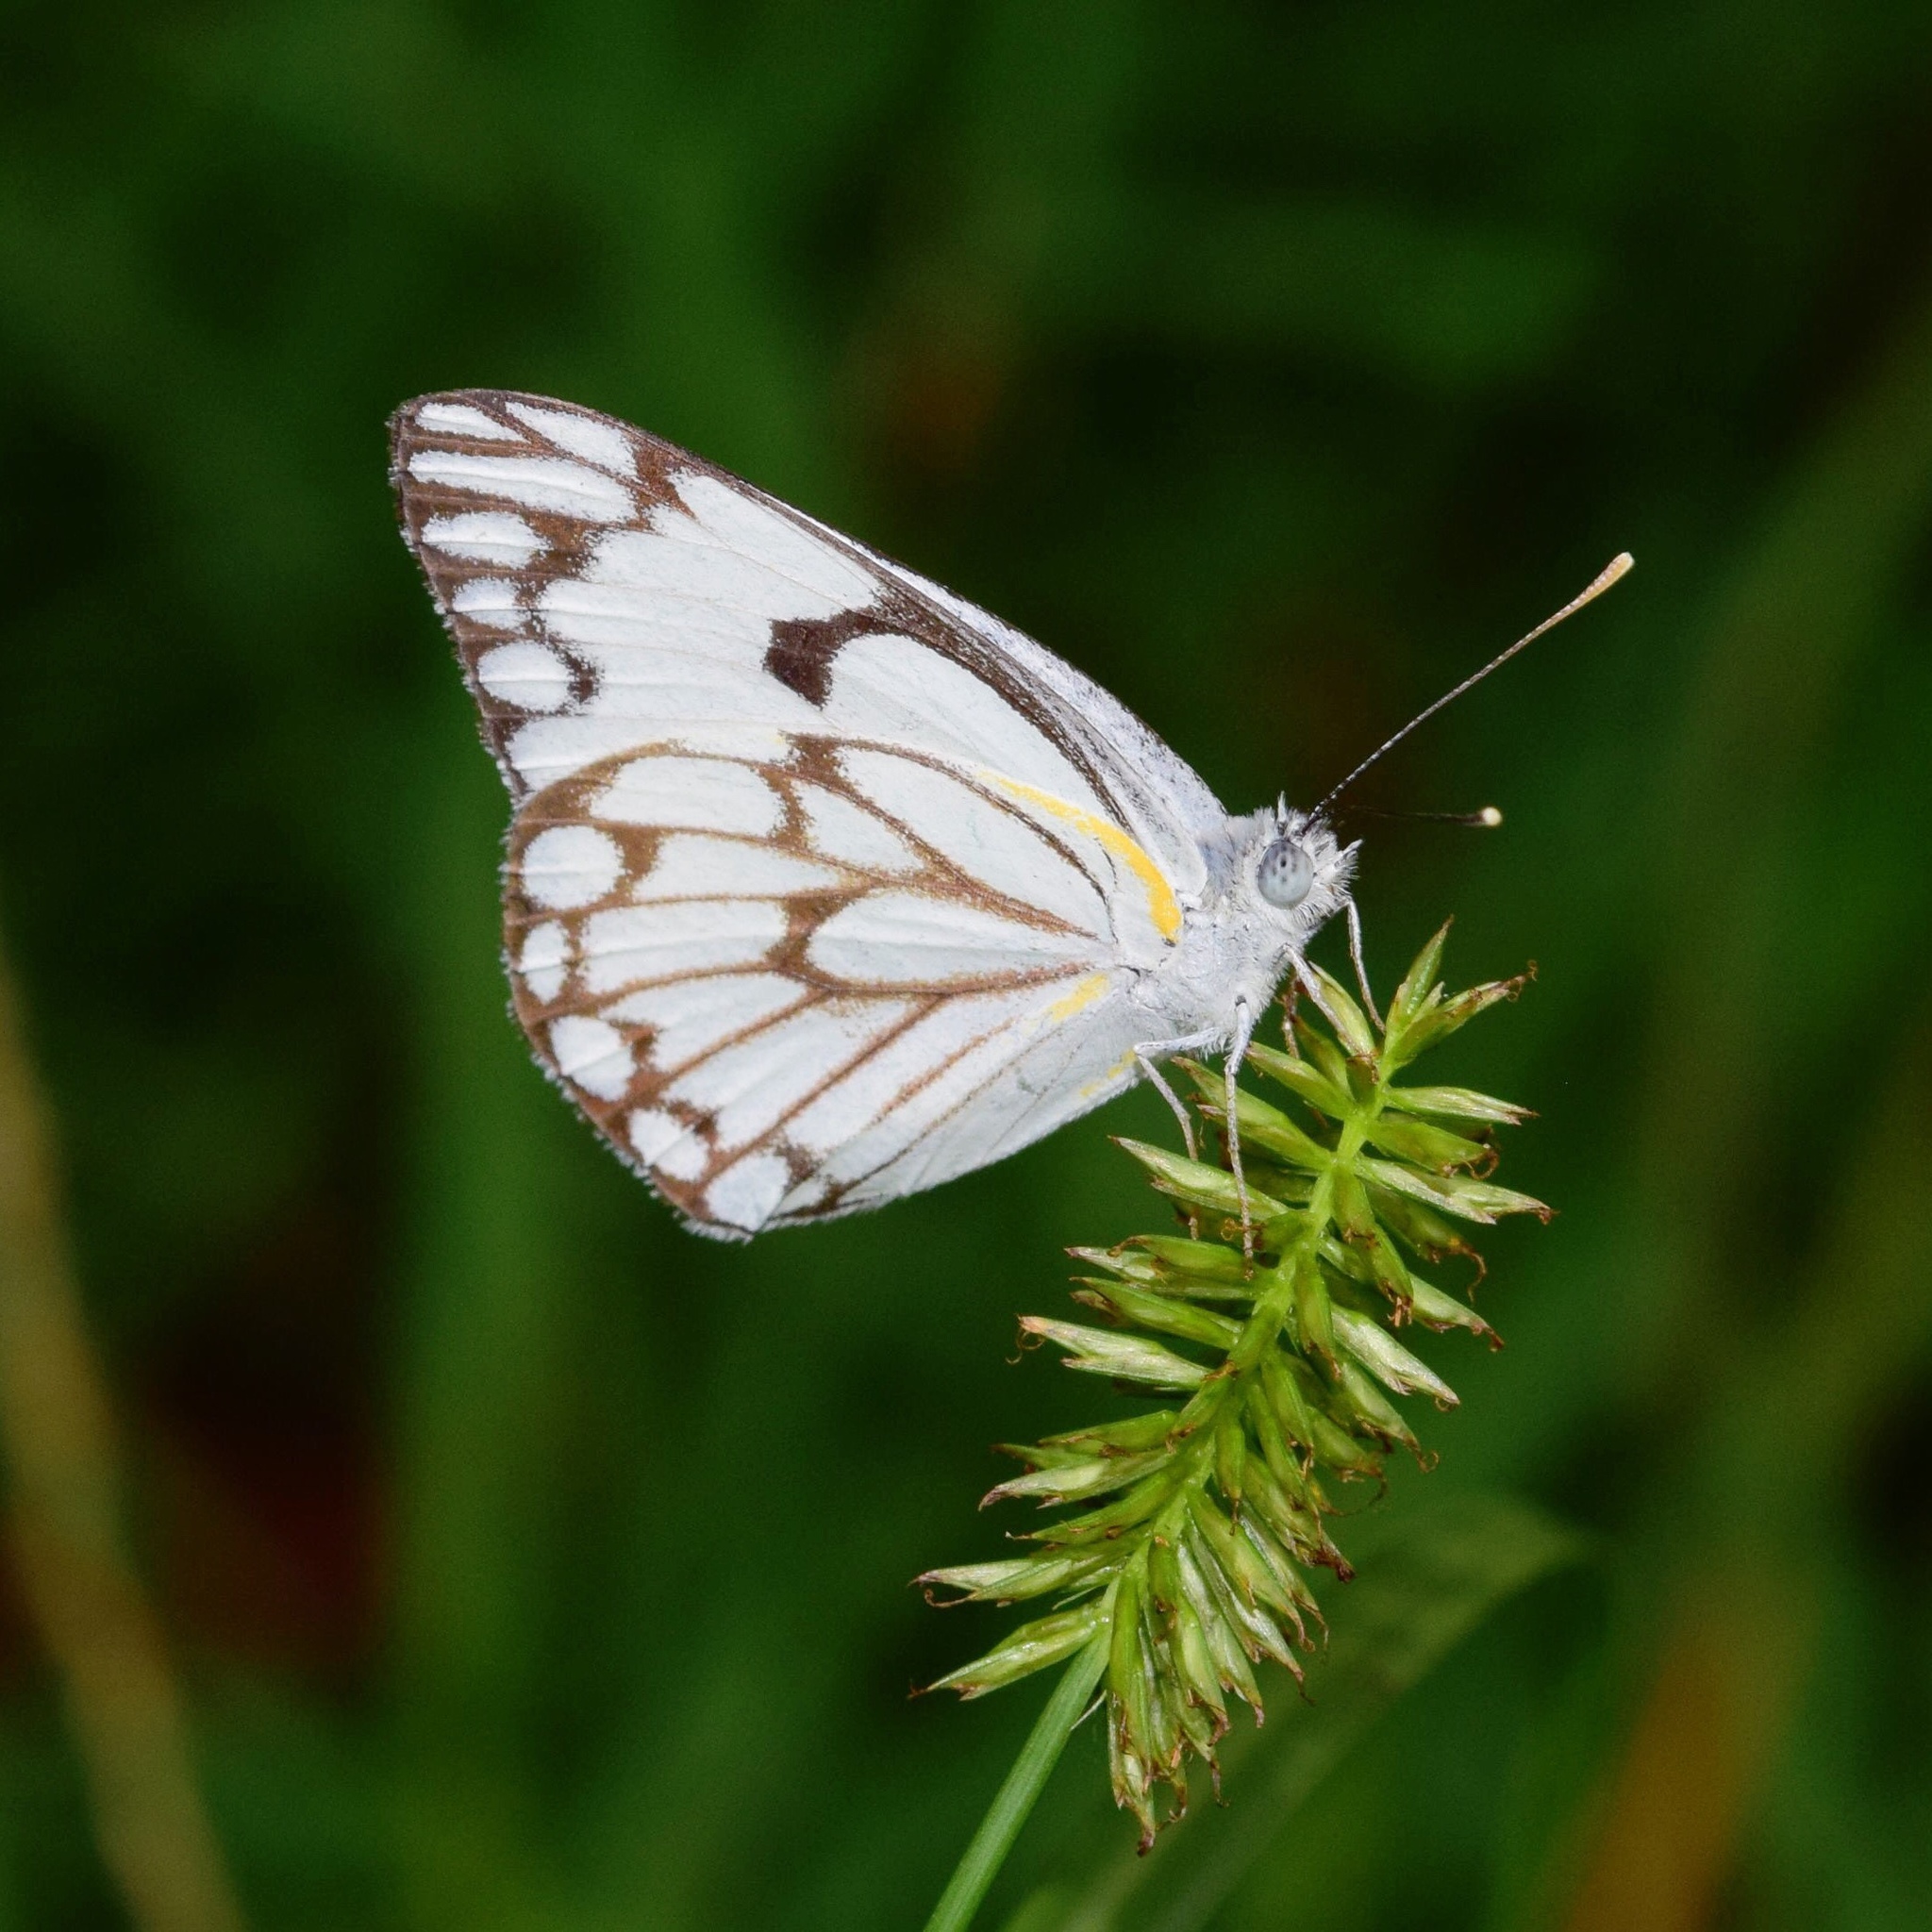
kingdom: Animalia
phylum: Arthropoda
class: Insecta
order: Lepidoptera
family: Pieridae
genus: Belenois
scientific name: Belenois aurota
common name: Brown-veined white
